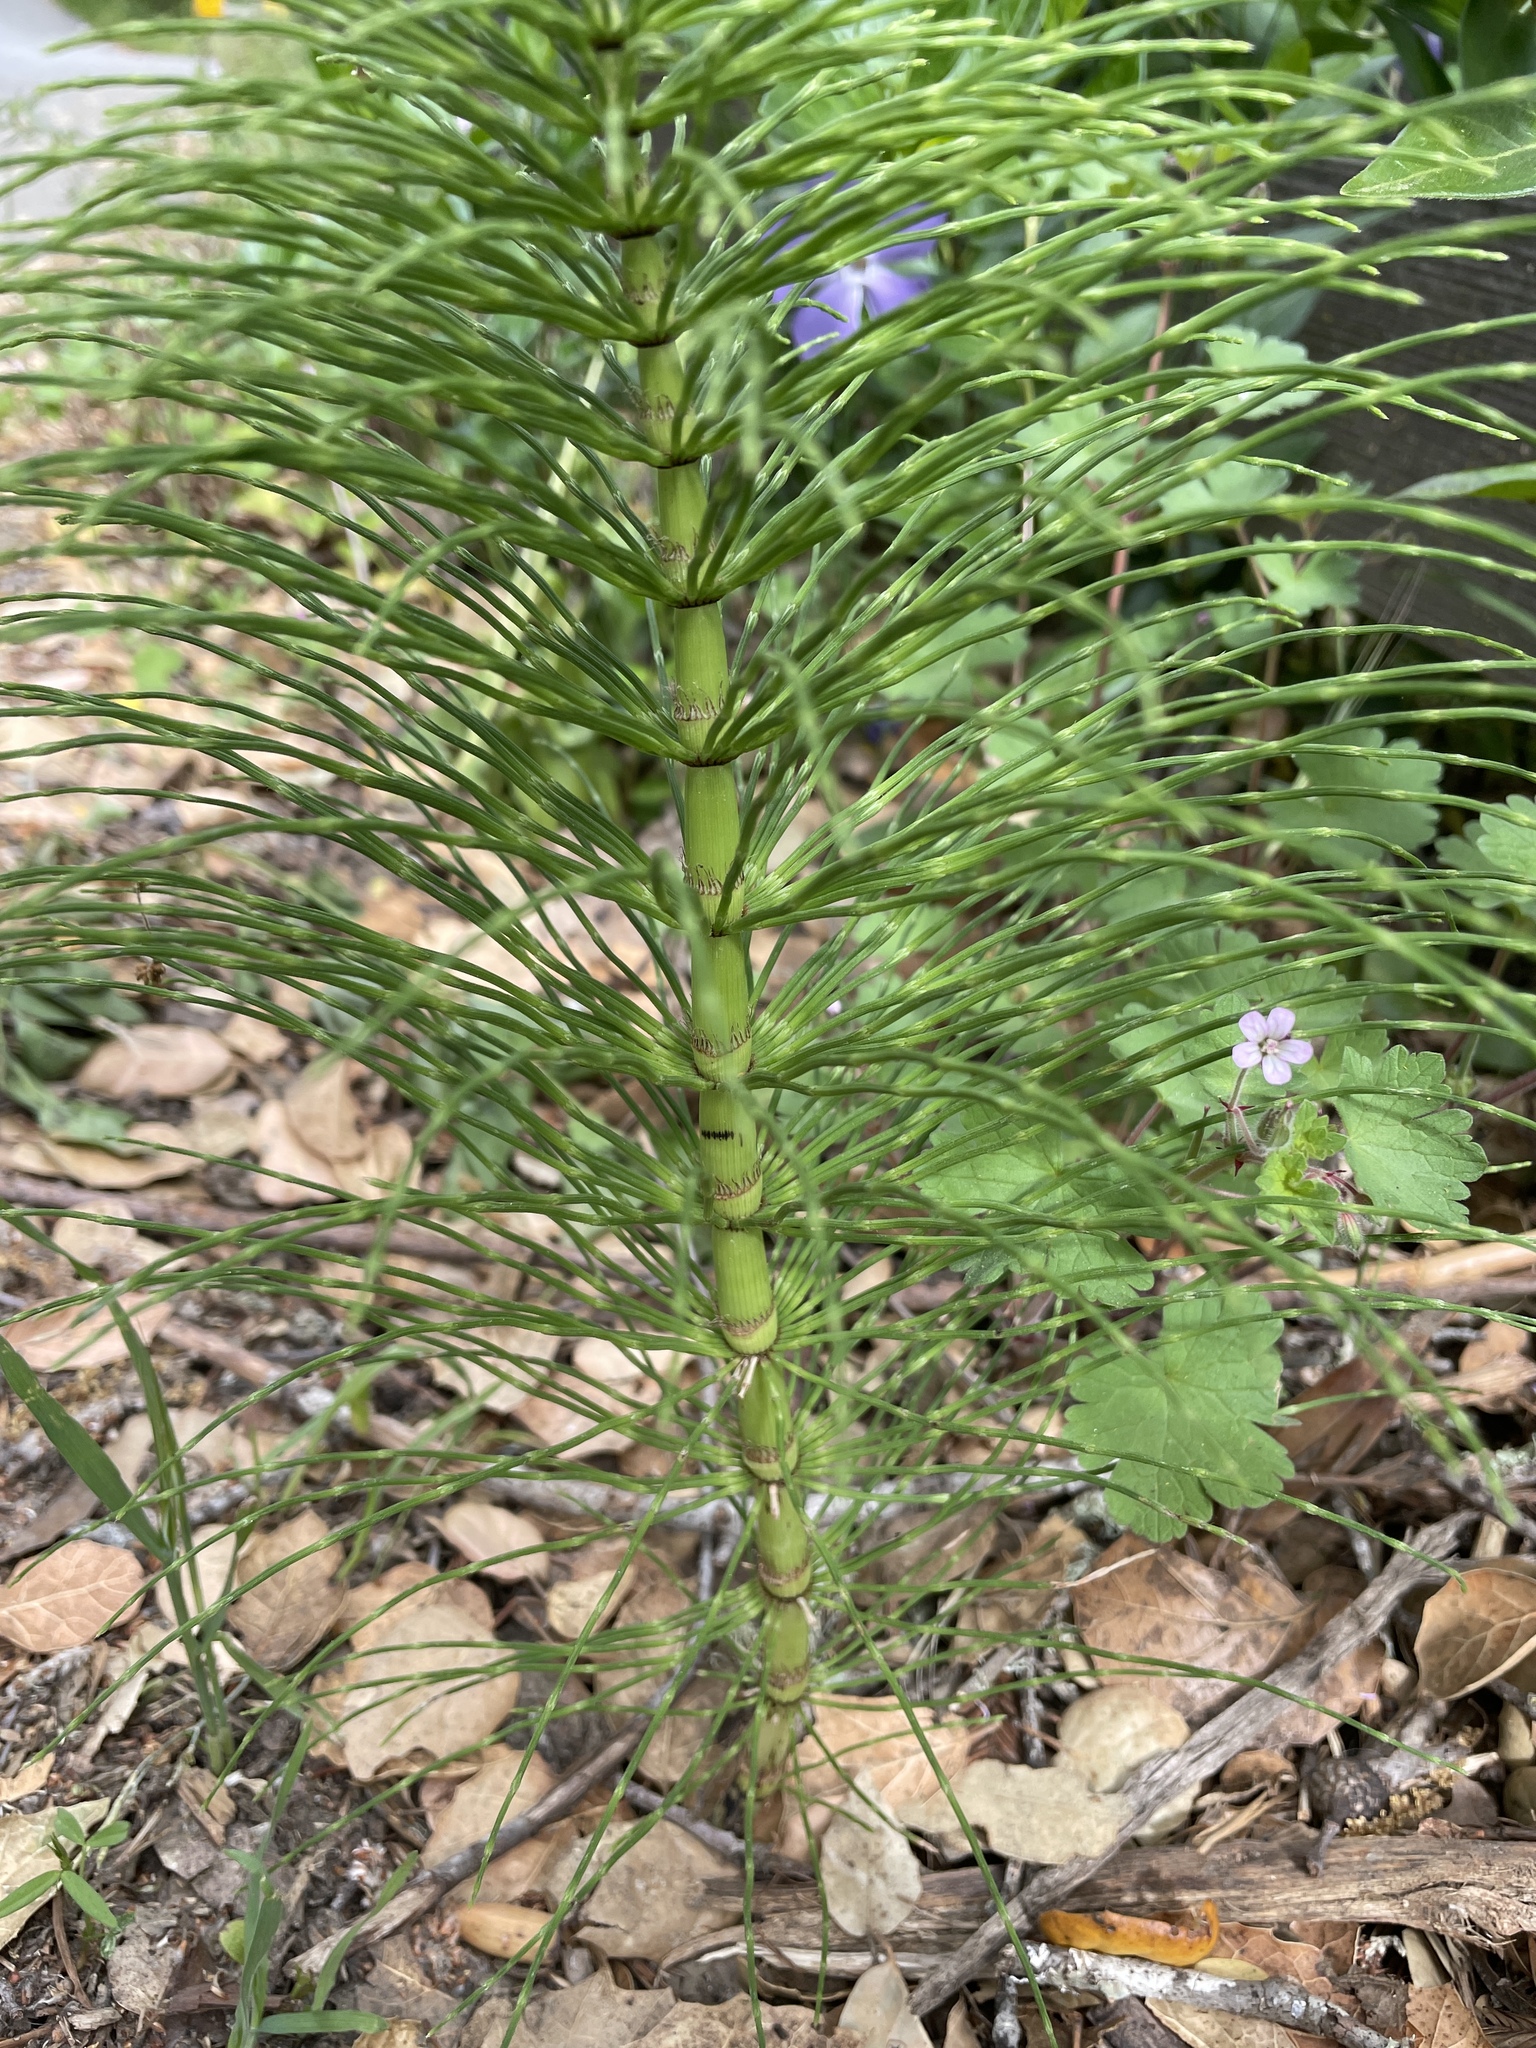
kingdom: Plantae
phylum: Tracheophyta
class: Polypodiopsida
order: Equisetales
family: Equisetaceae
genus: Equisetum
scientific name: Equisetum braunii
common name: Braun's horsetail
